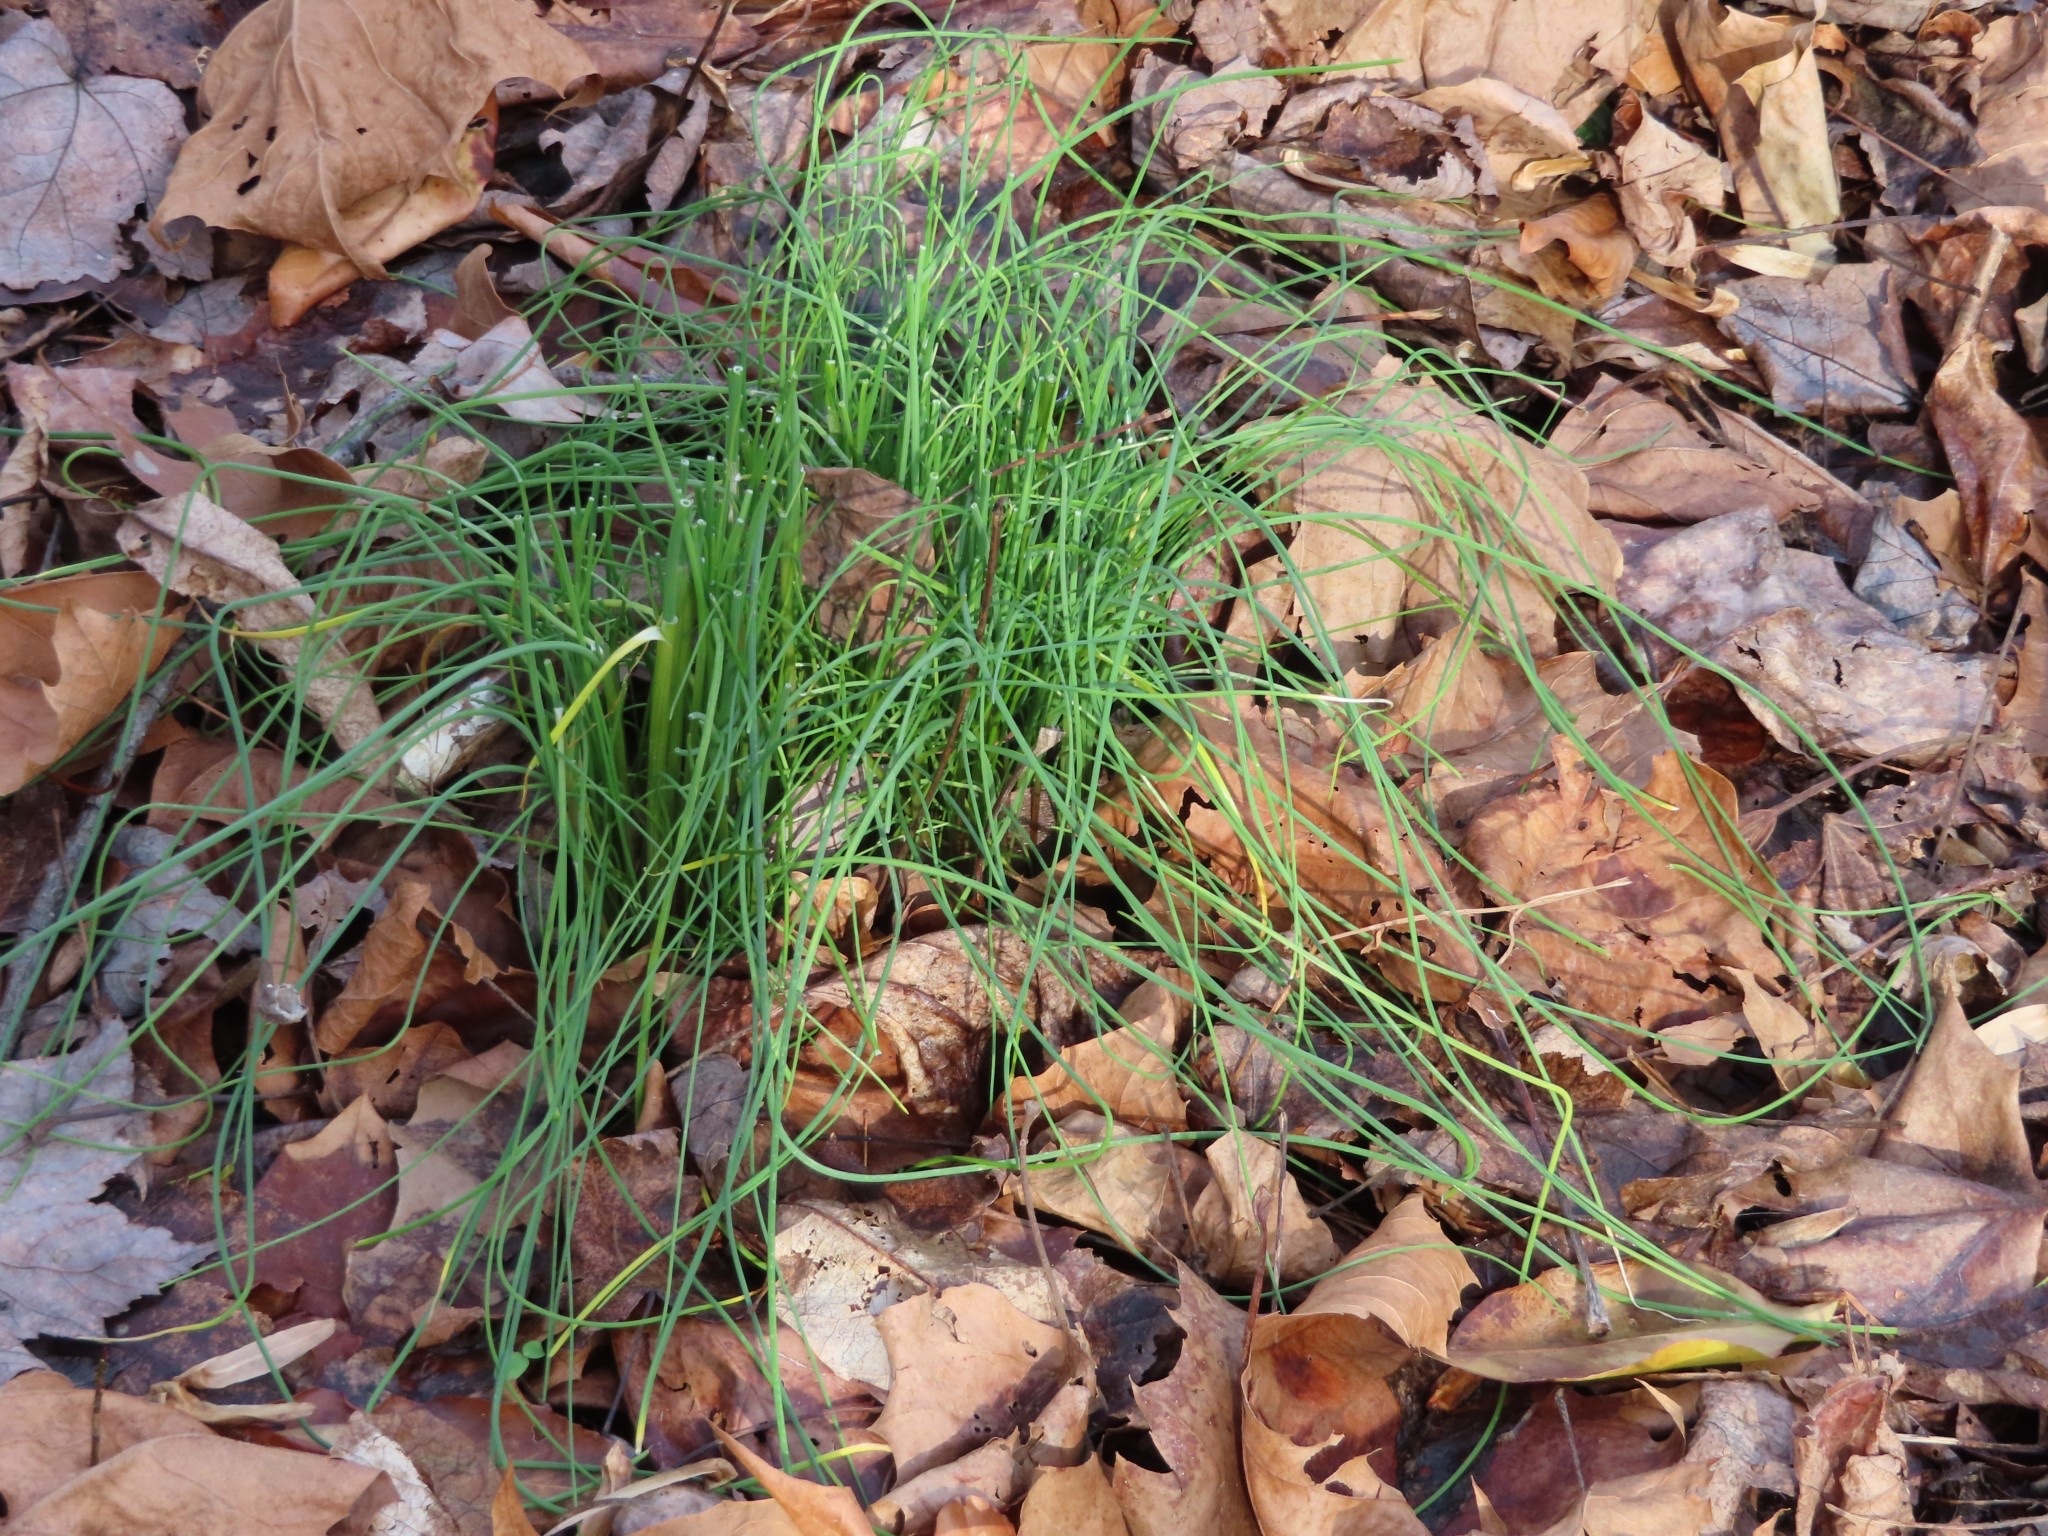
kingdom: Plantae
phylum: Tracheophyta
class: Liliopsida
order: Asparagales
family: Amaryllidaceae
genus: Allium
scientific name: Allium vineale
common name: Crow garlic
